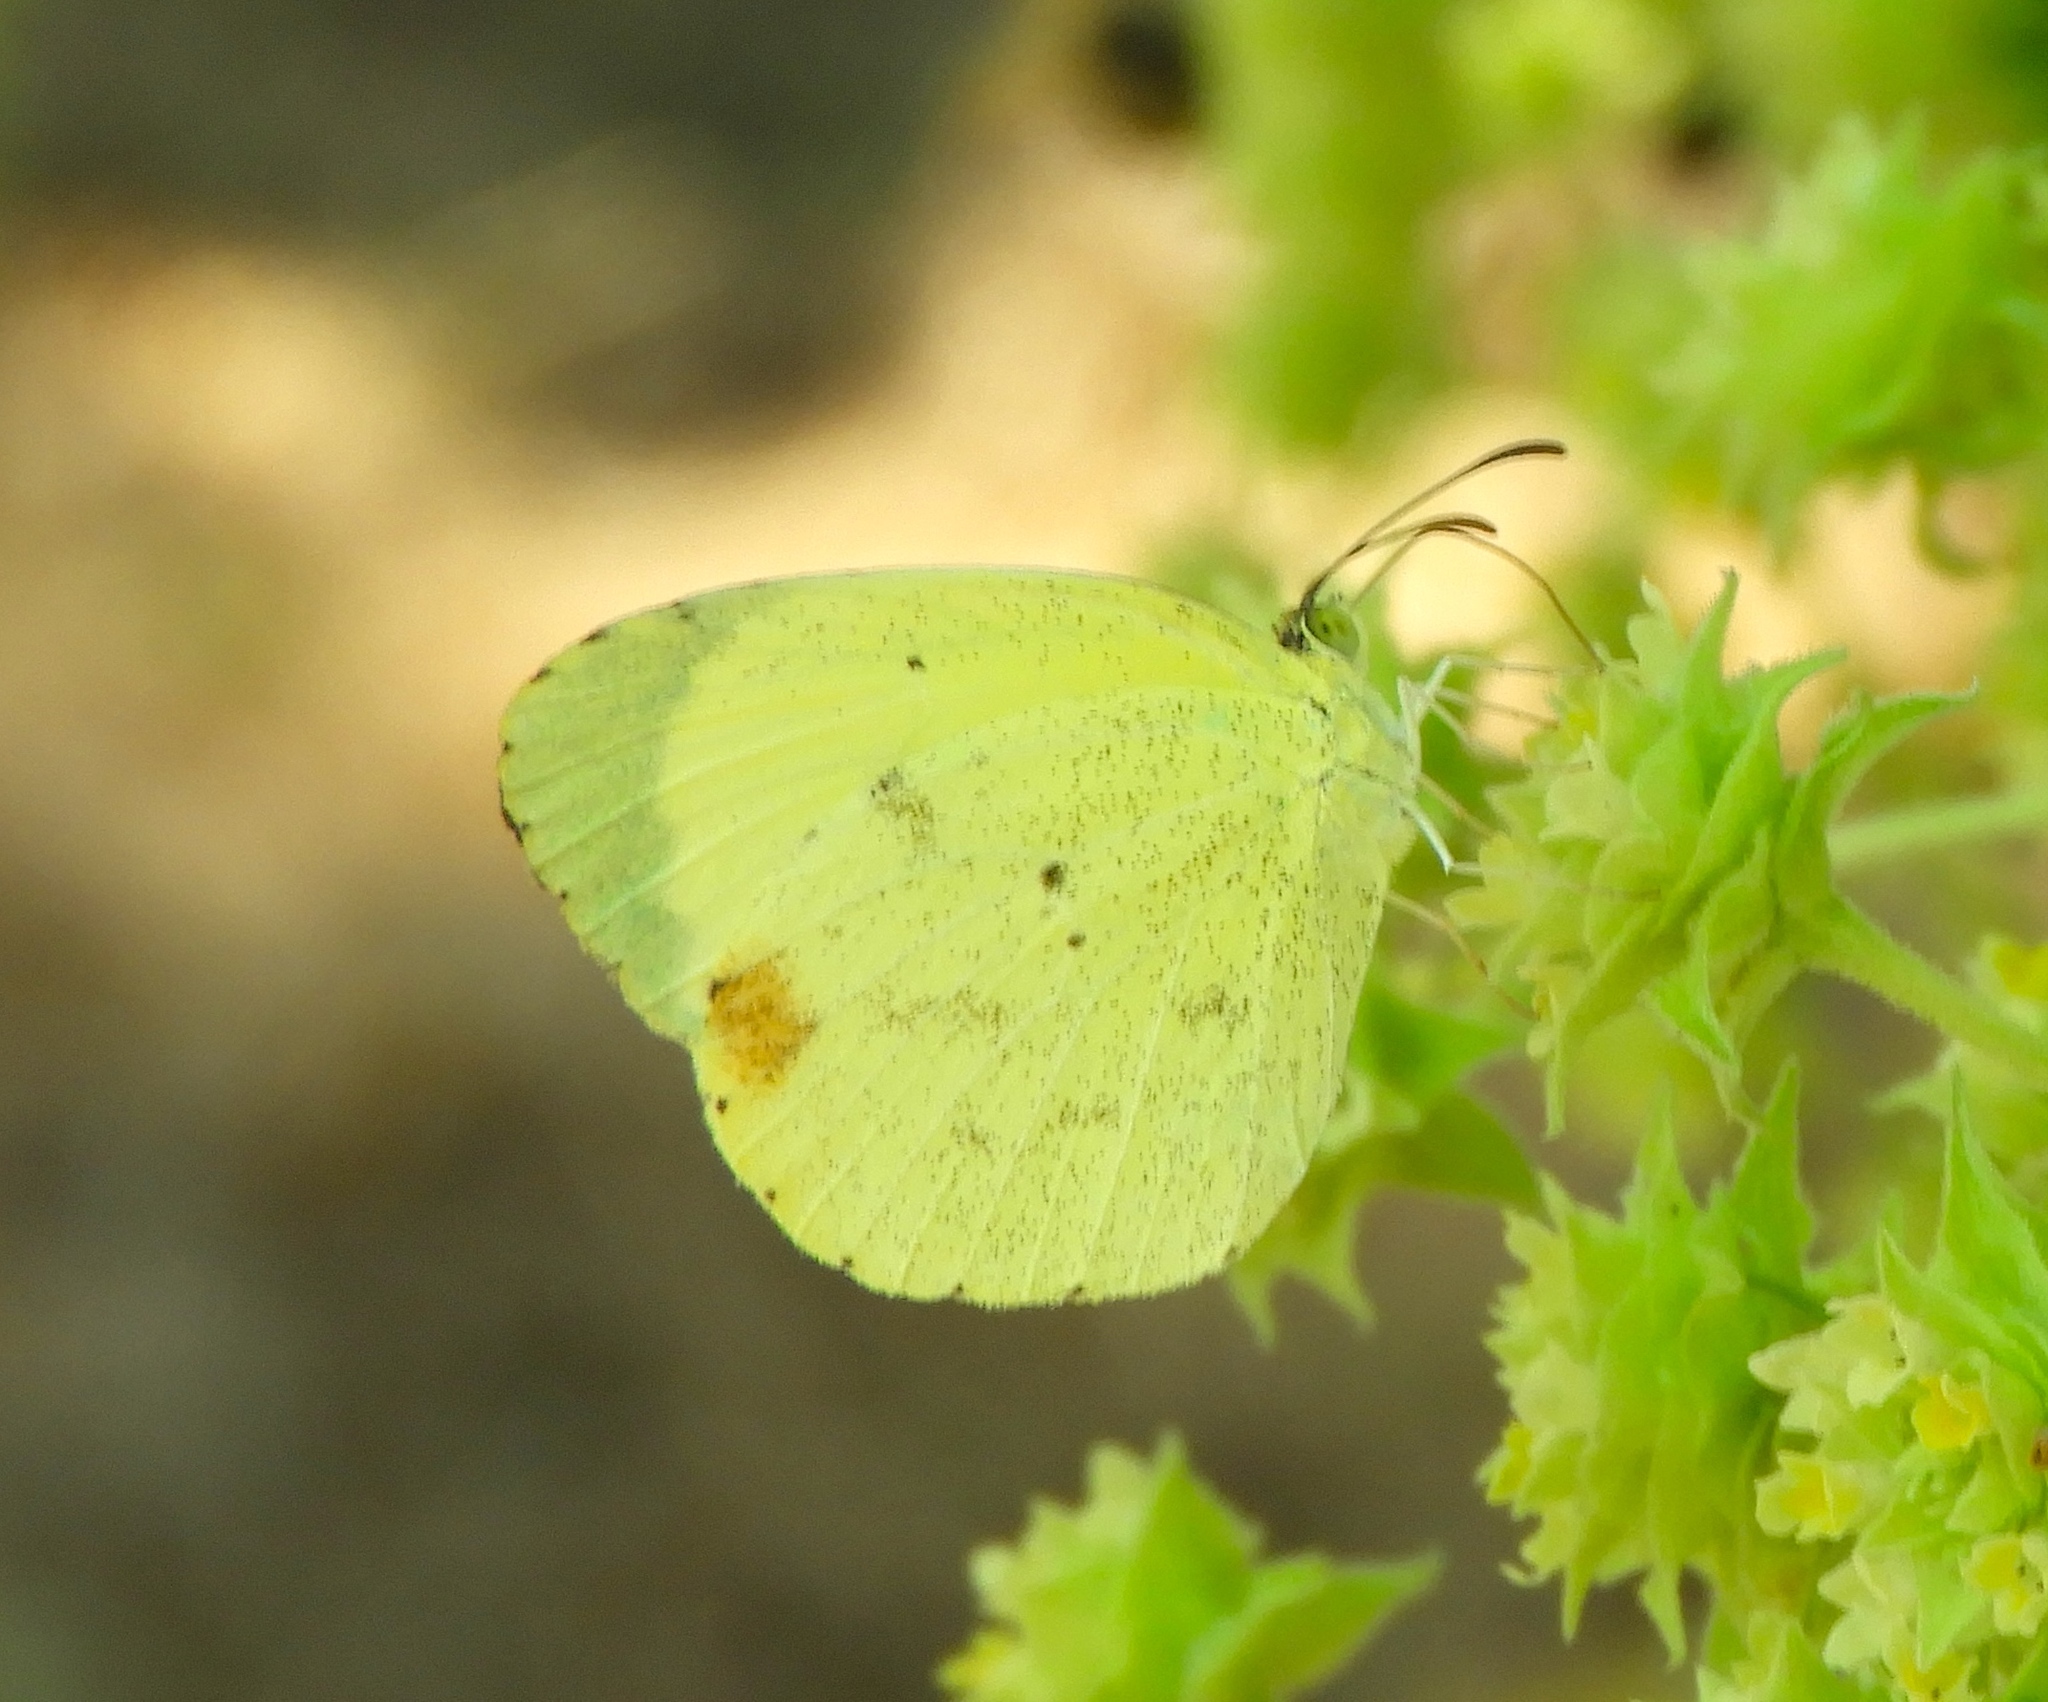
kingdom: Animalia
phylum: Arthropoda
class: Insecta
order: Lepidoptera
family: Pieridae
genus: Pyrisitia
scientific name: Pyrisitia nise
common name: Mimosa yellow
